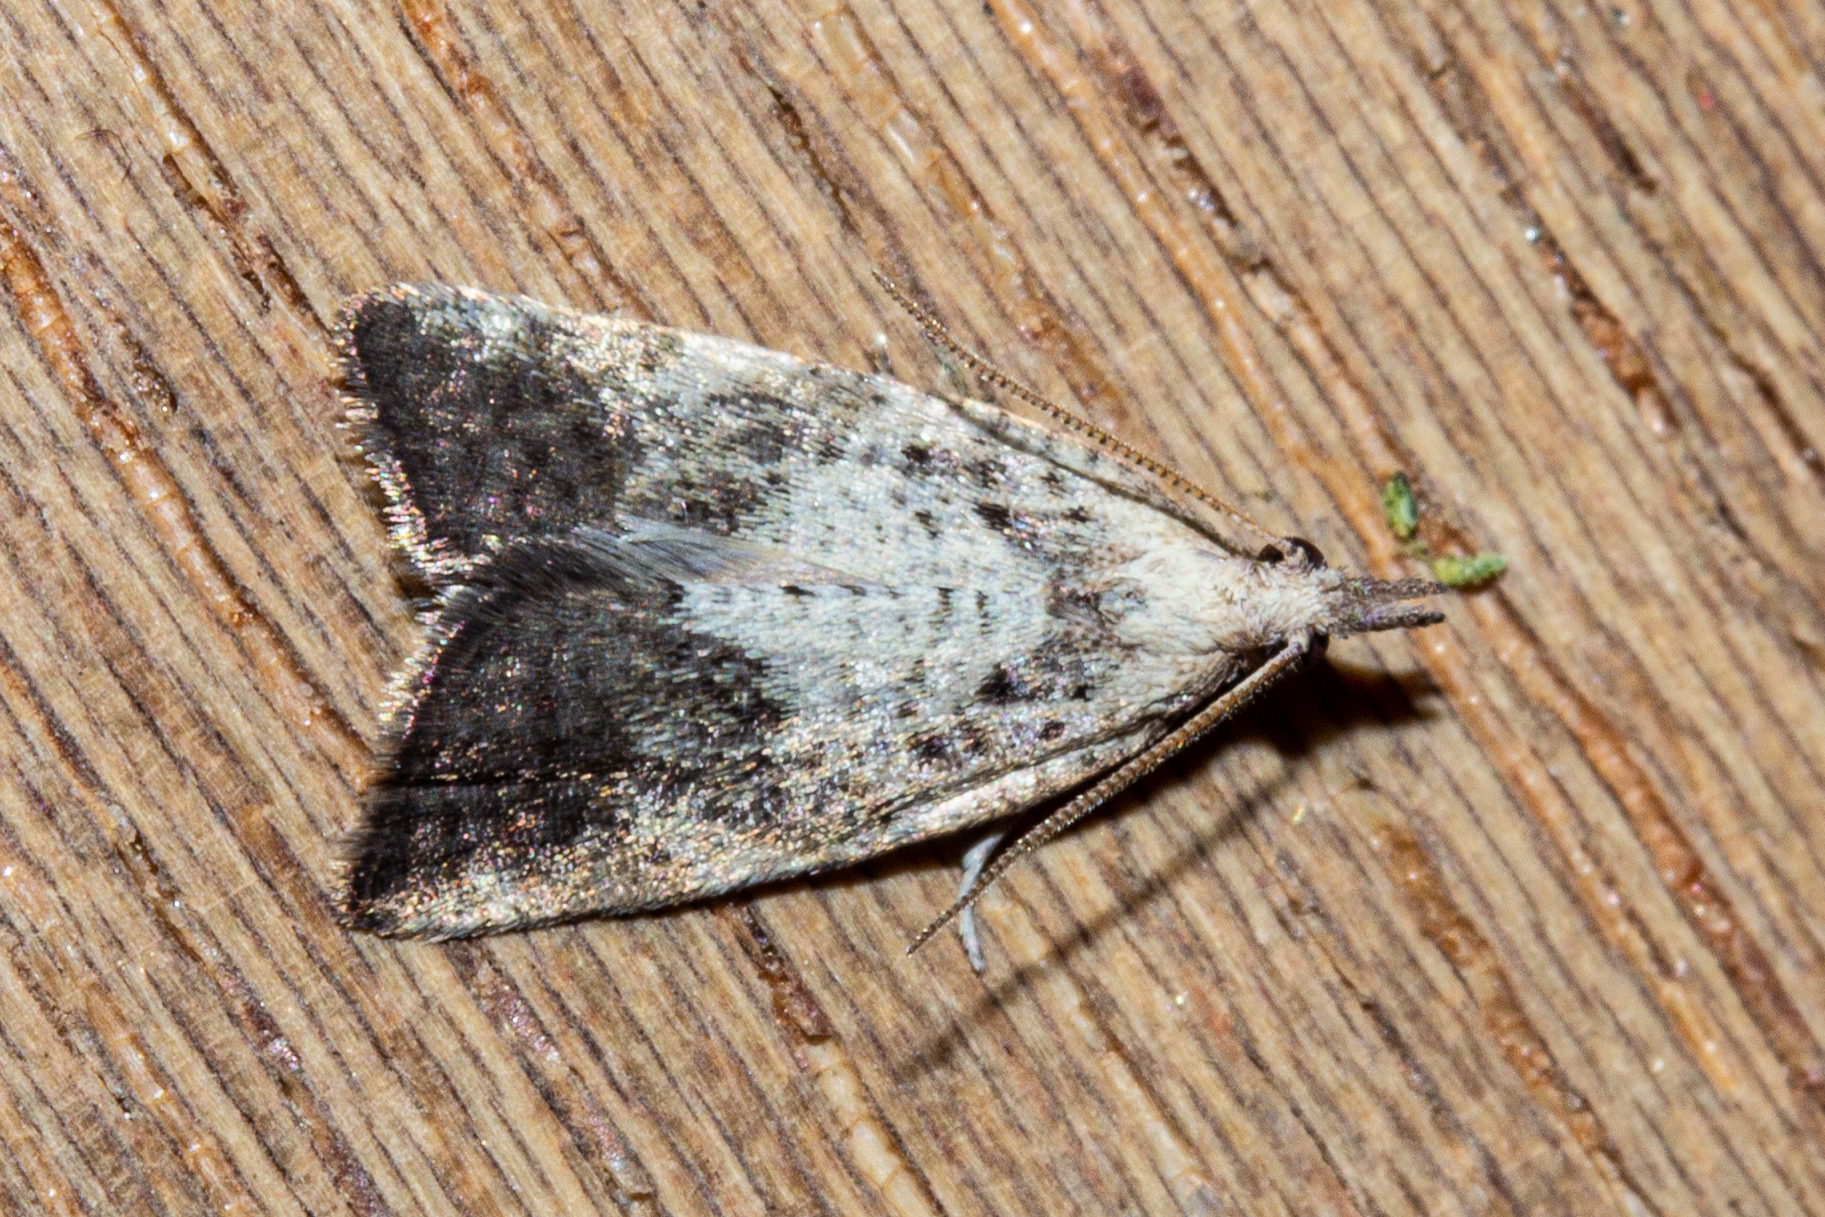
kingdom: Animalia
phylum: Arthropoda
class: Insecta
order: Lepidoptera
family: Tortricidae
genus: Catamacta
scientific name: Catamacta gavisana
